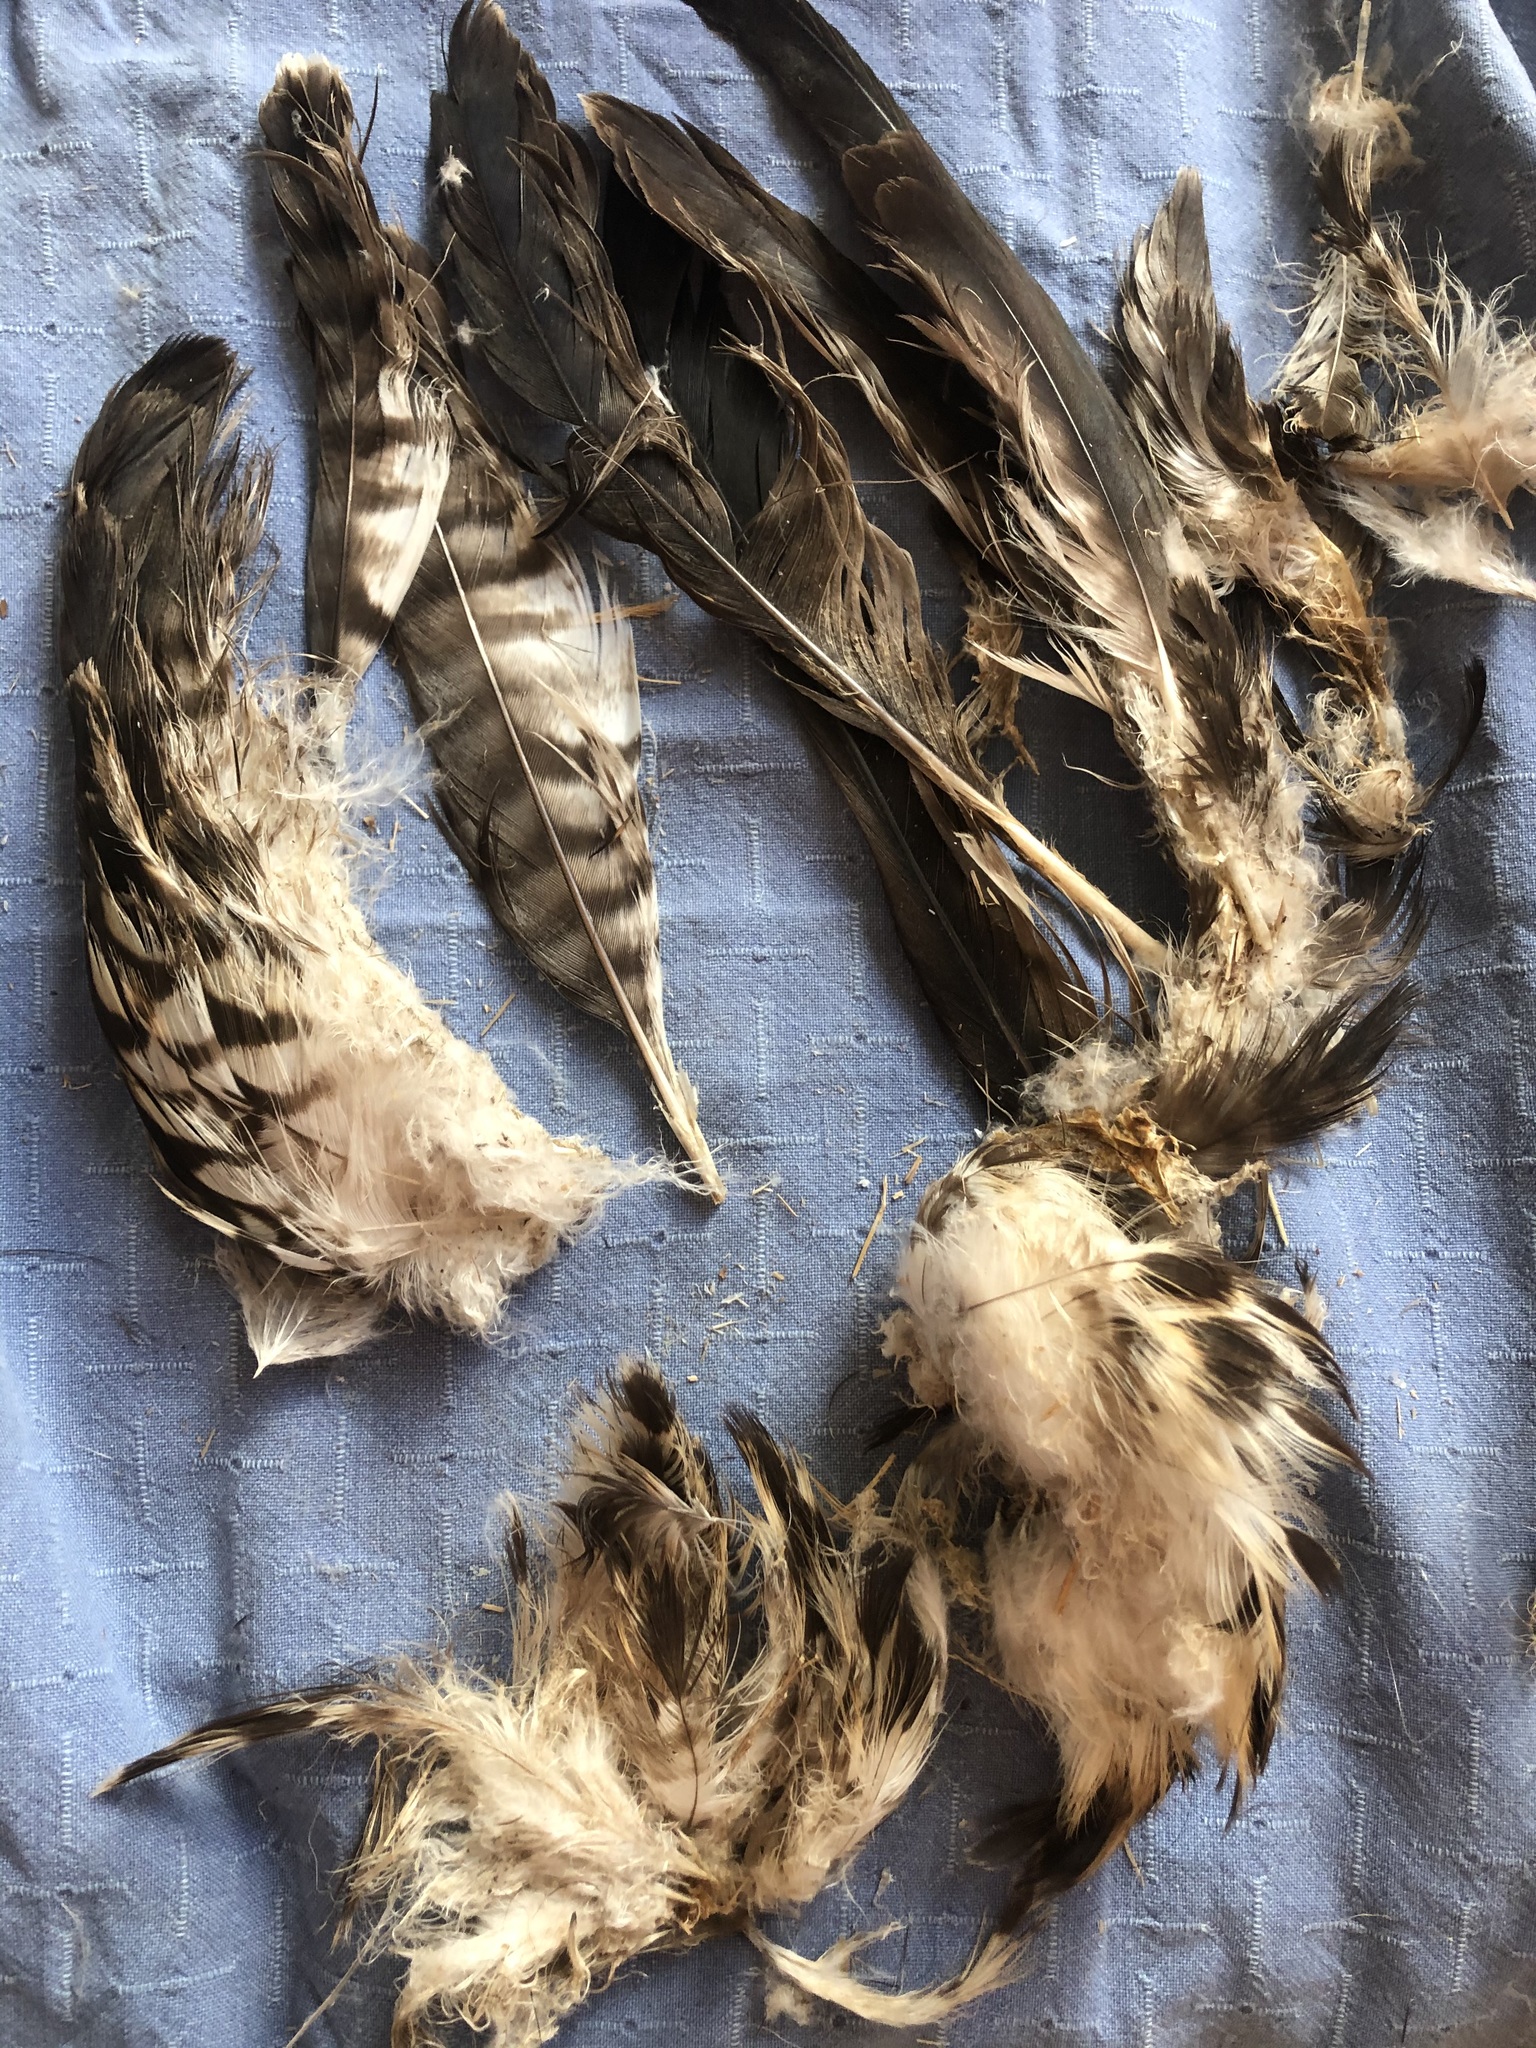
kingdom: Animalia
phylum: Chordata
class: Aves
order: Accipitriformes
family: Accipitridae
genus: Buteo
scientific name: Buteo jamaicensis
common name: Red-tailed hawk
